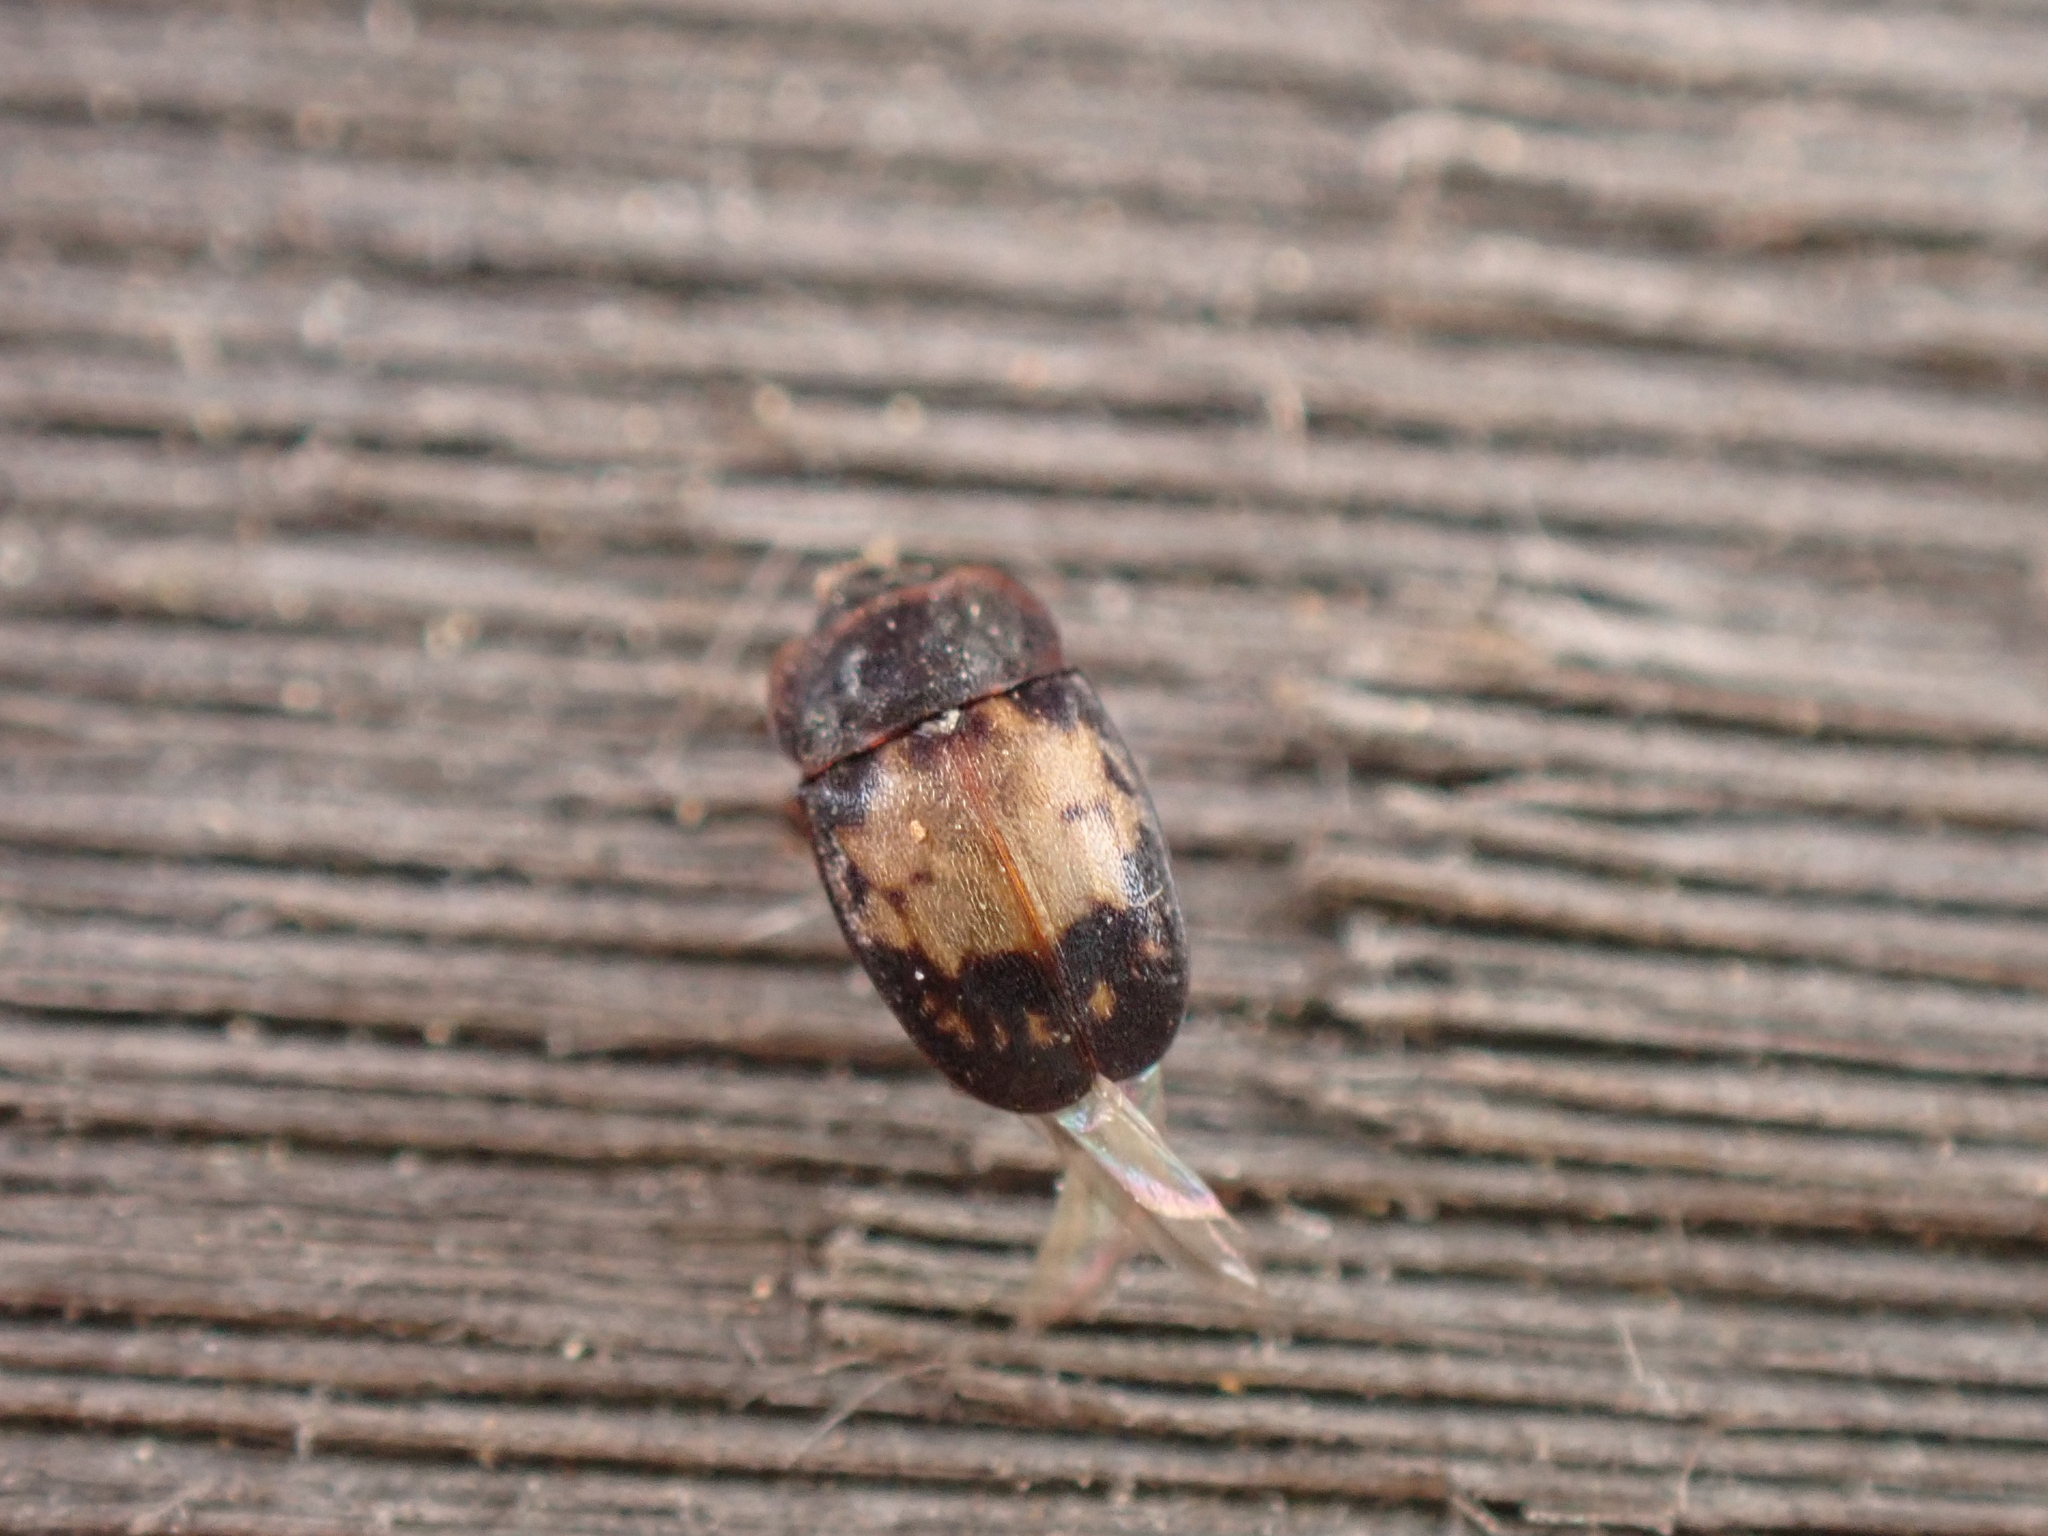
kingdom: Animalia
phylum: Arthropoda
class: Insecta
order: Coleoptera
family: Nitidulidae
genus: Omosita
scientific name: Omosita discoidea
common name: Sap beetle
